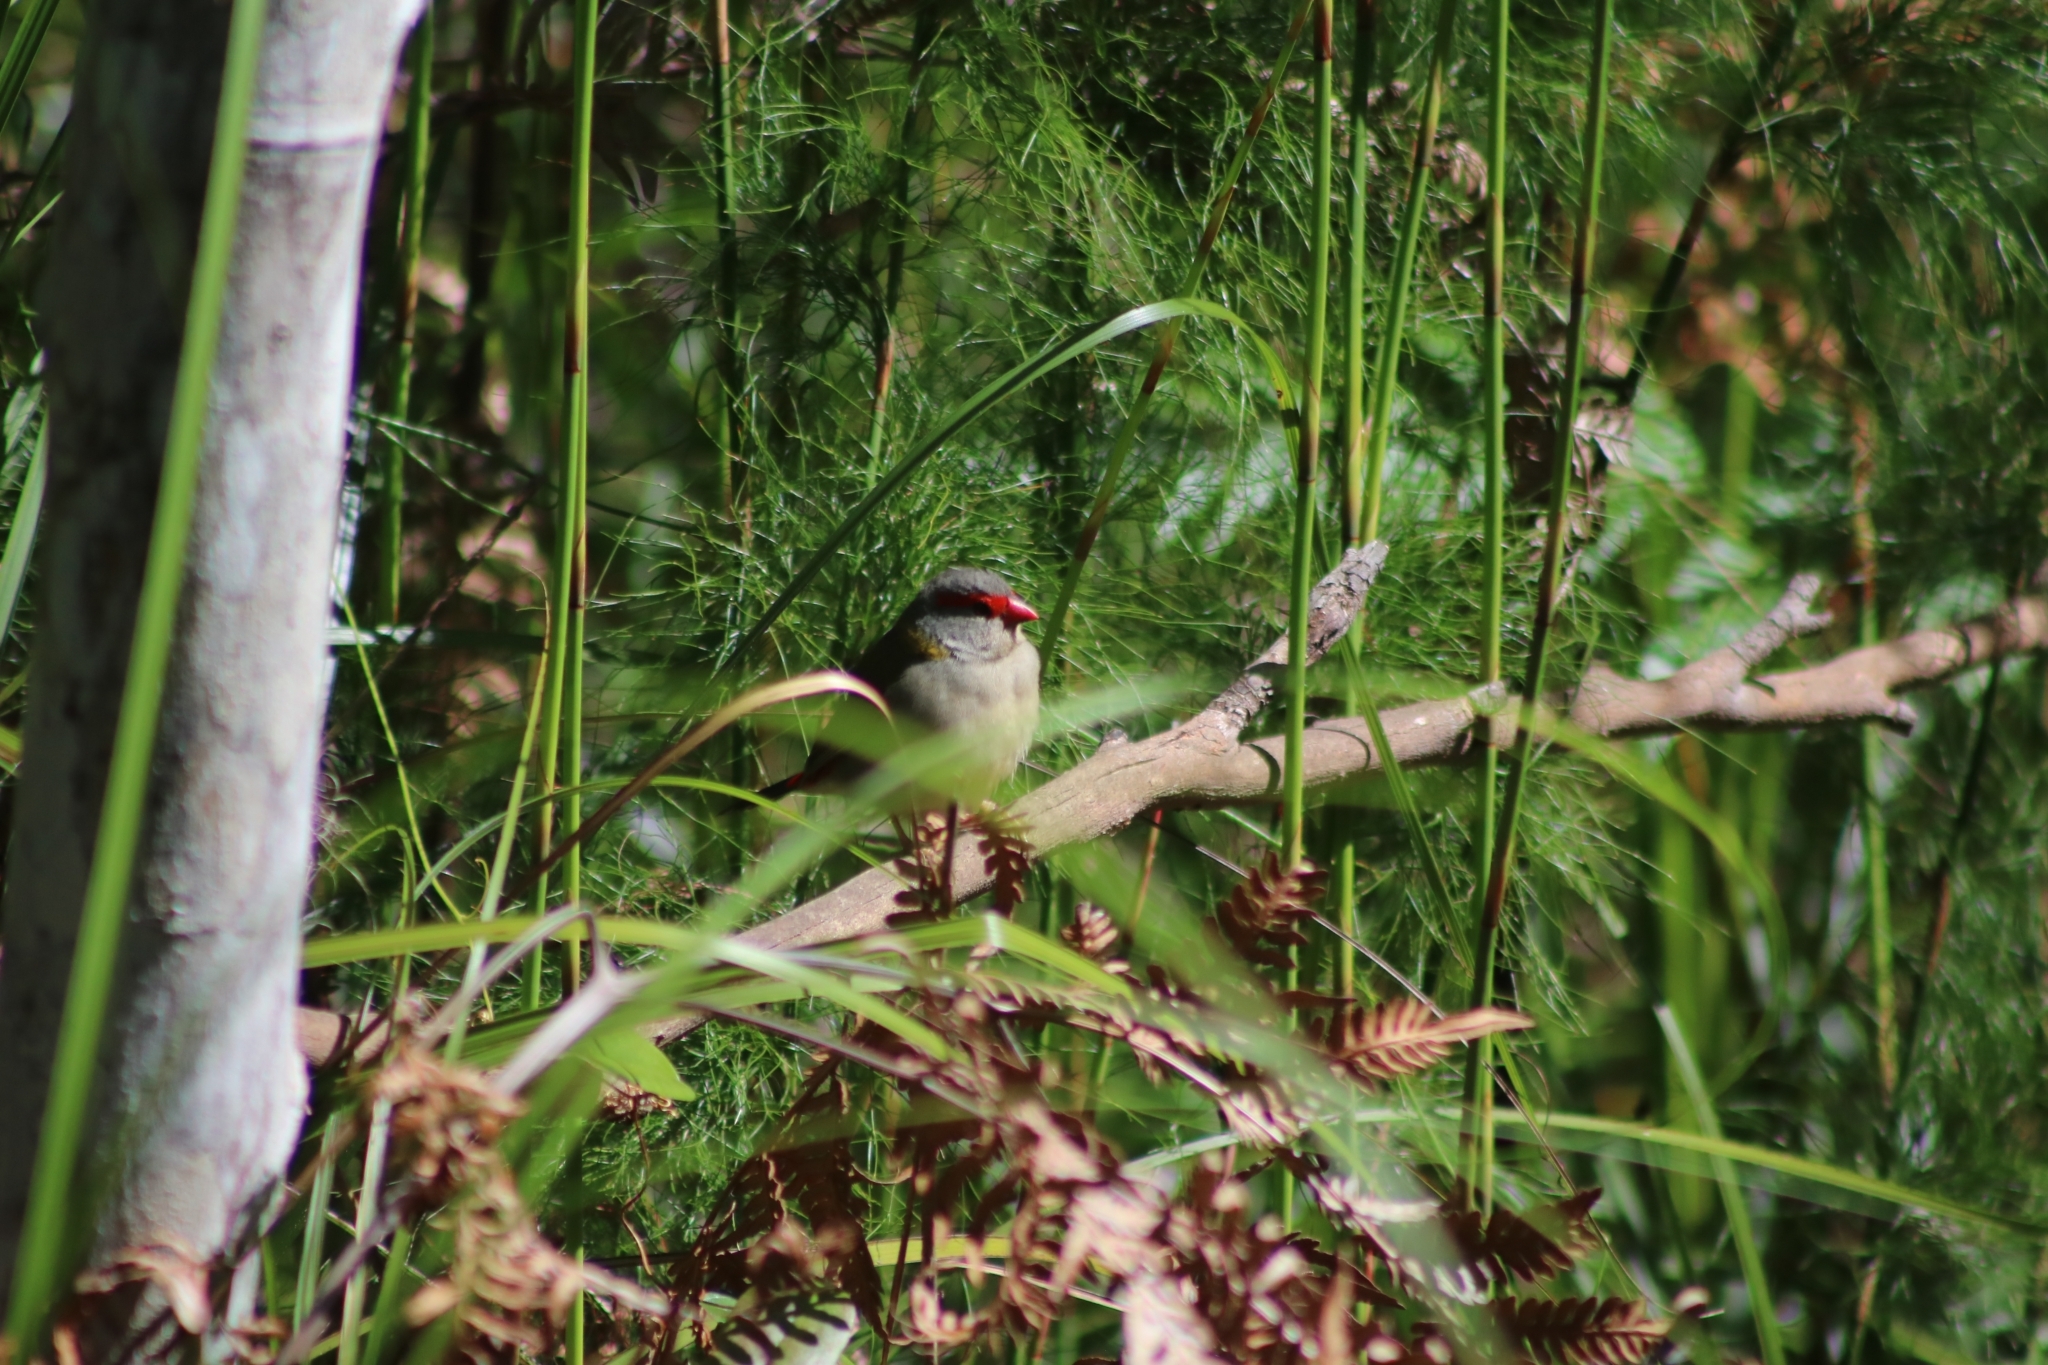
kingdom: Animalia
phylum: Chordata
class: Aves
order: Passeriformes
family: Estrildidae
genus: Neochmia
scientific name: Neochmia temporalis
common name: Red-browed finch
